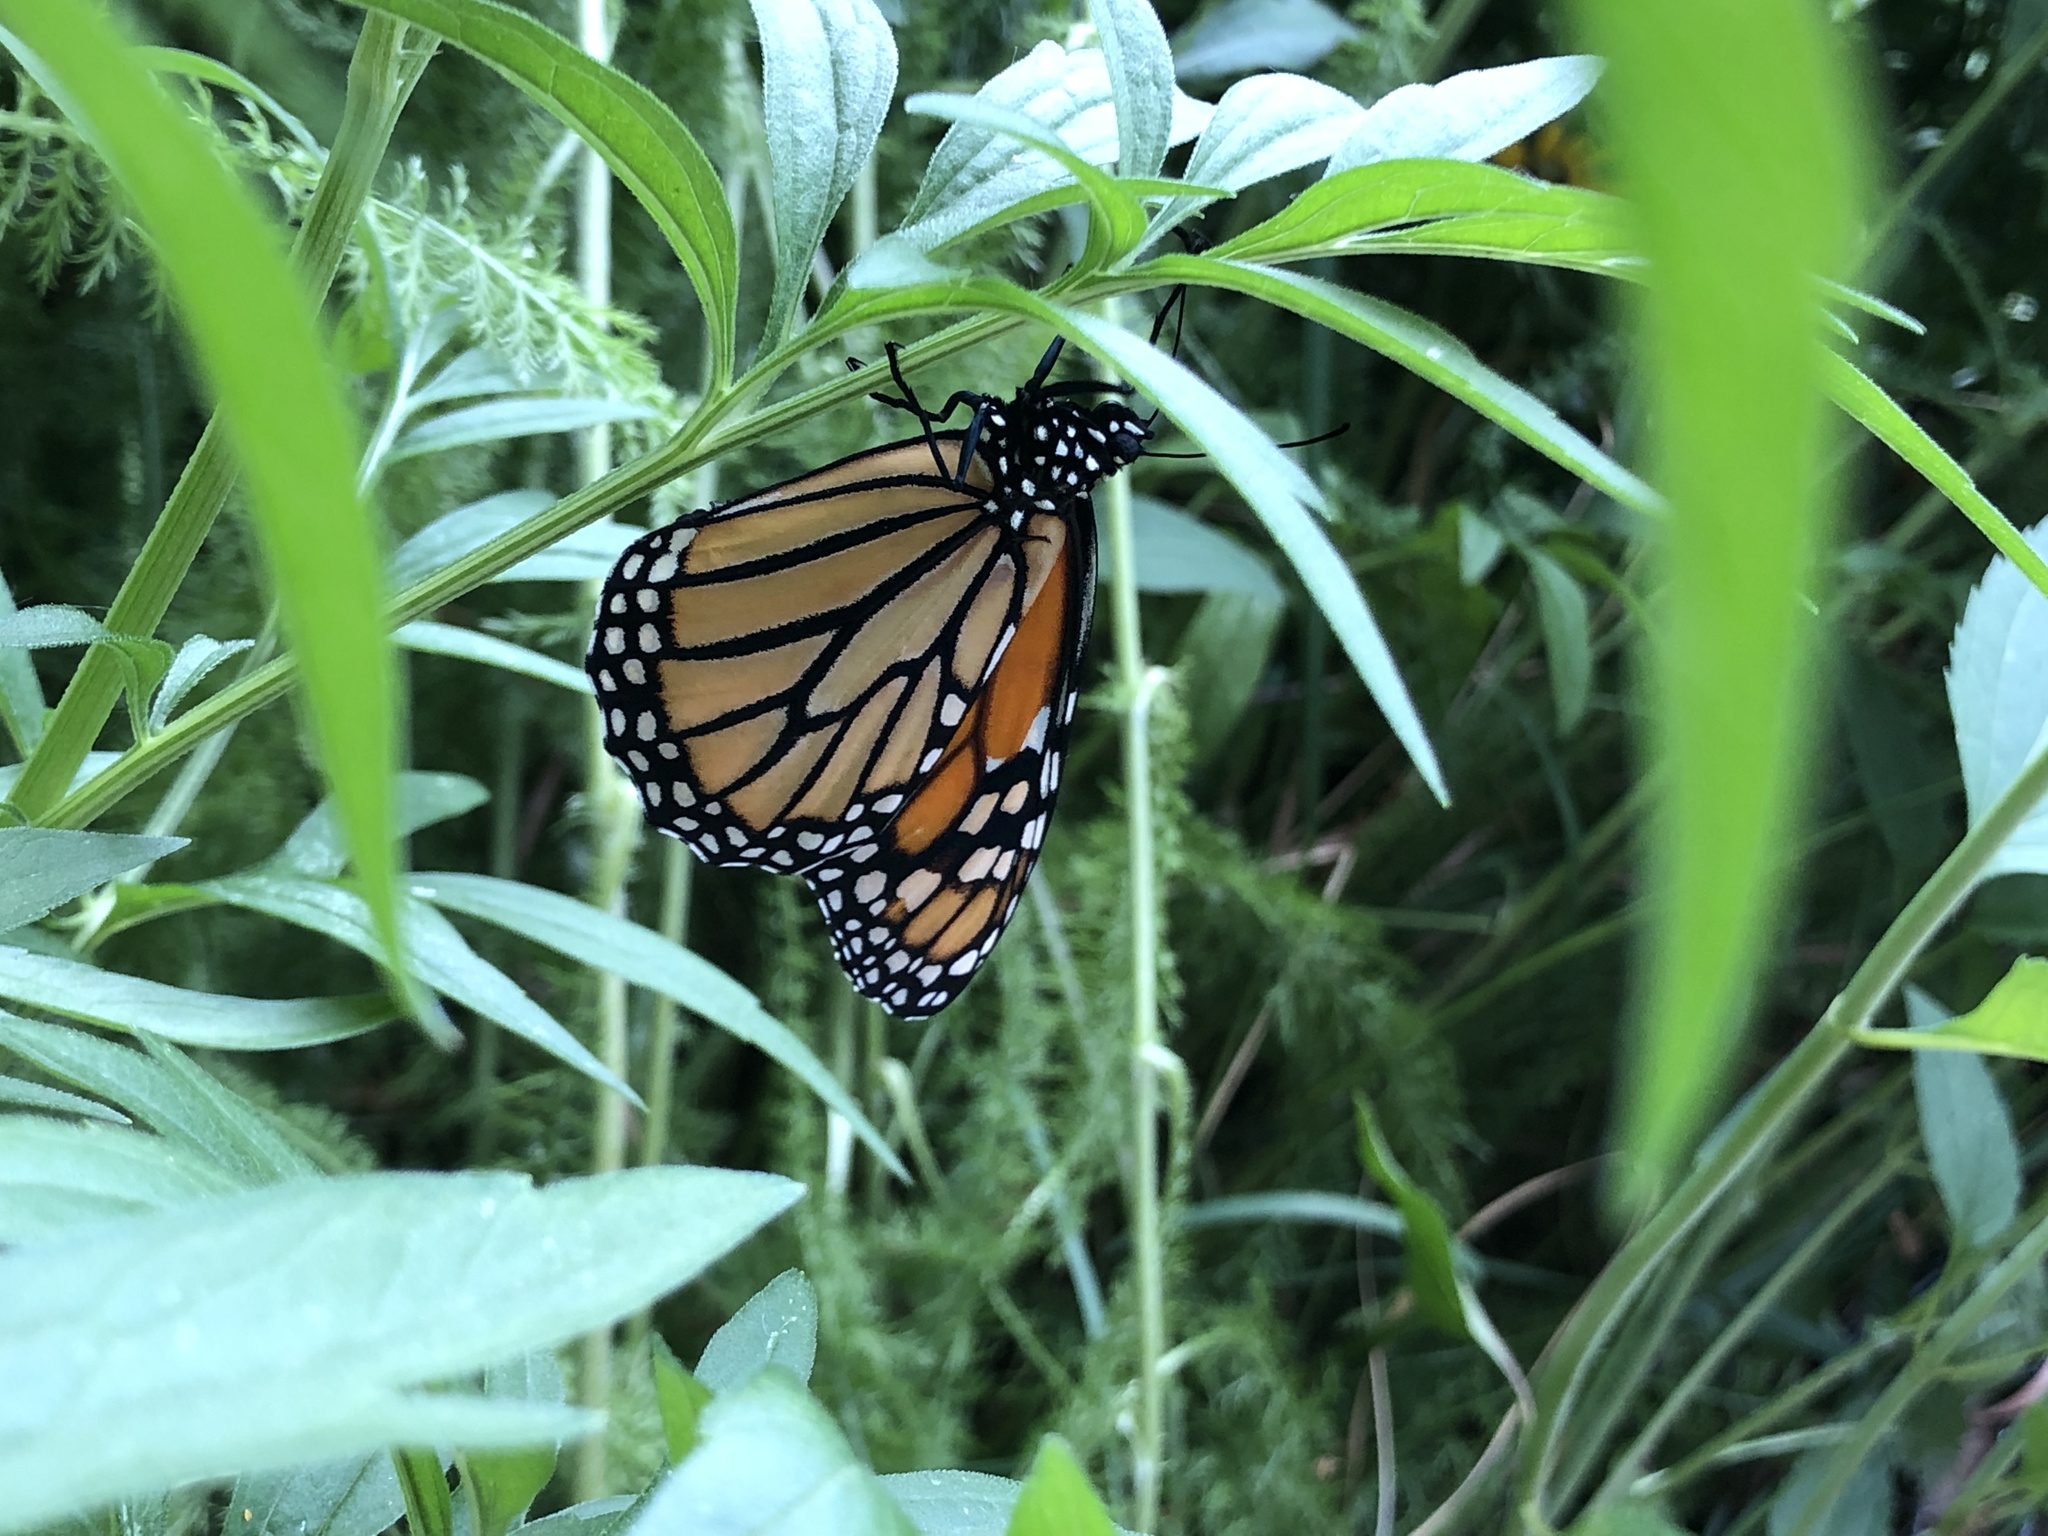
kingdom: Animalia
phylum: Arthropoda
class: Insecta
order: Lepidoptera
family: Nymphalidae
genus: Danaus
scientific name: Danaus plexippus
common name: Monarch
